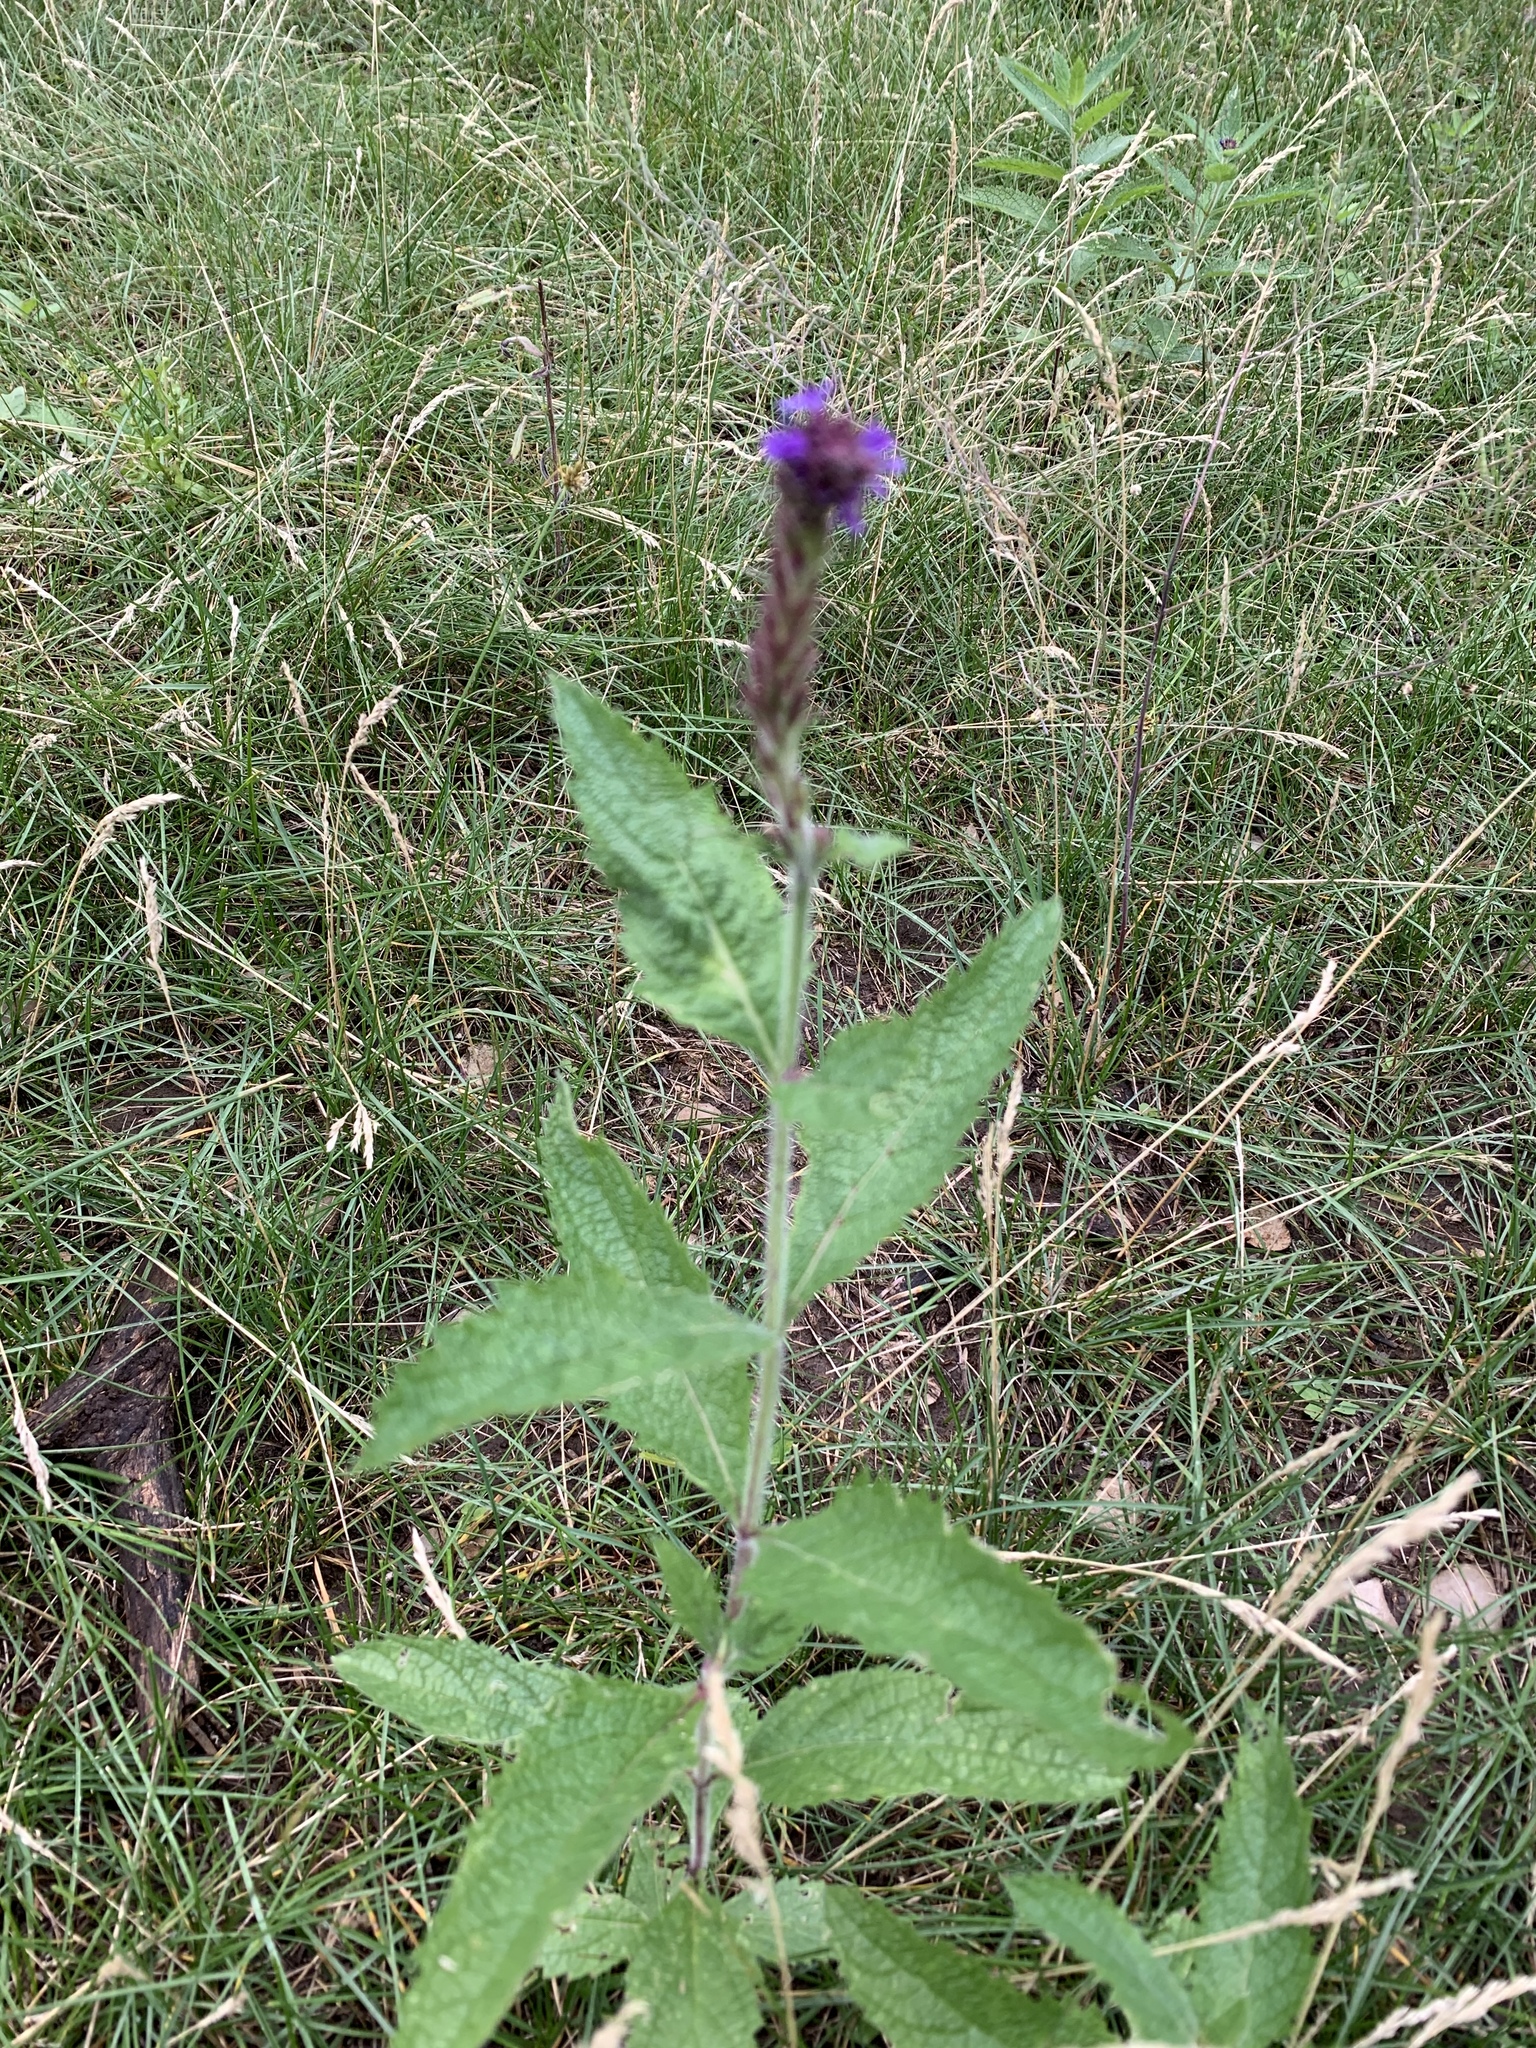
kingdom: Plantae
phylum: Tracheophyta
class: Magnoliopsida
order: Lamiales
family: Verbenaceae
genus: Verbena
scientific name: Verbena macdougalii
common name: New mexico vervain
